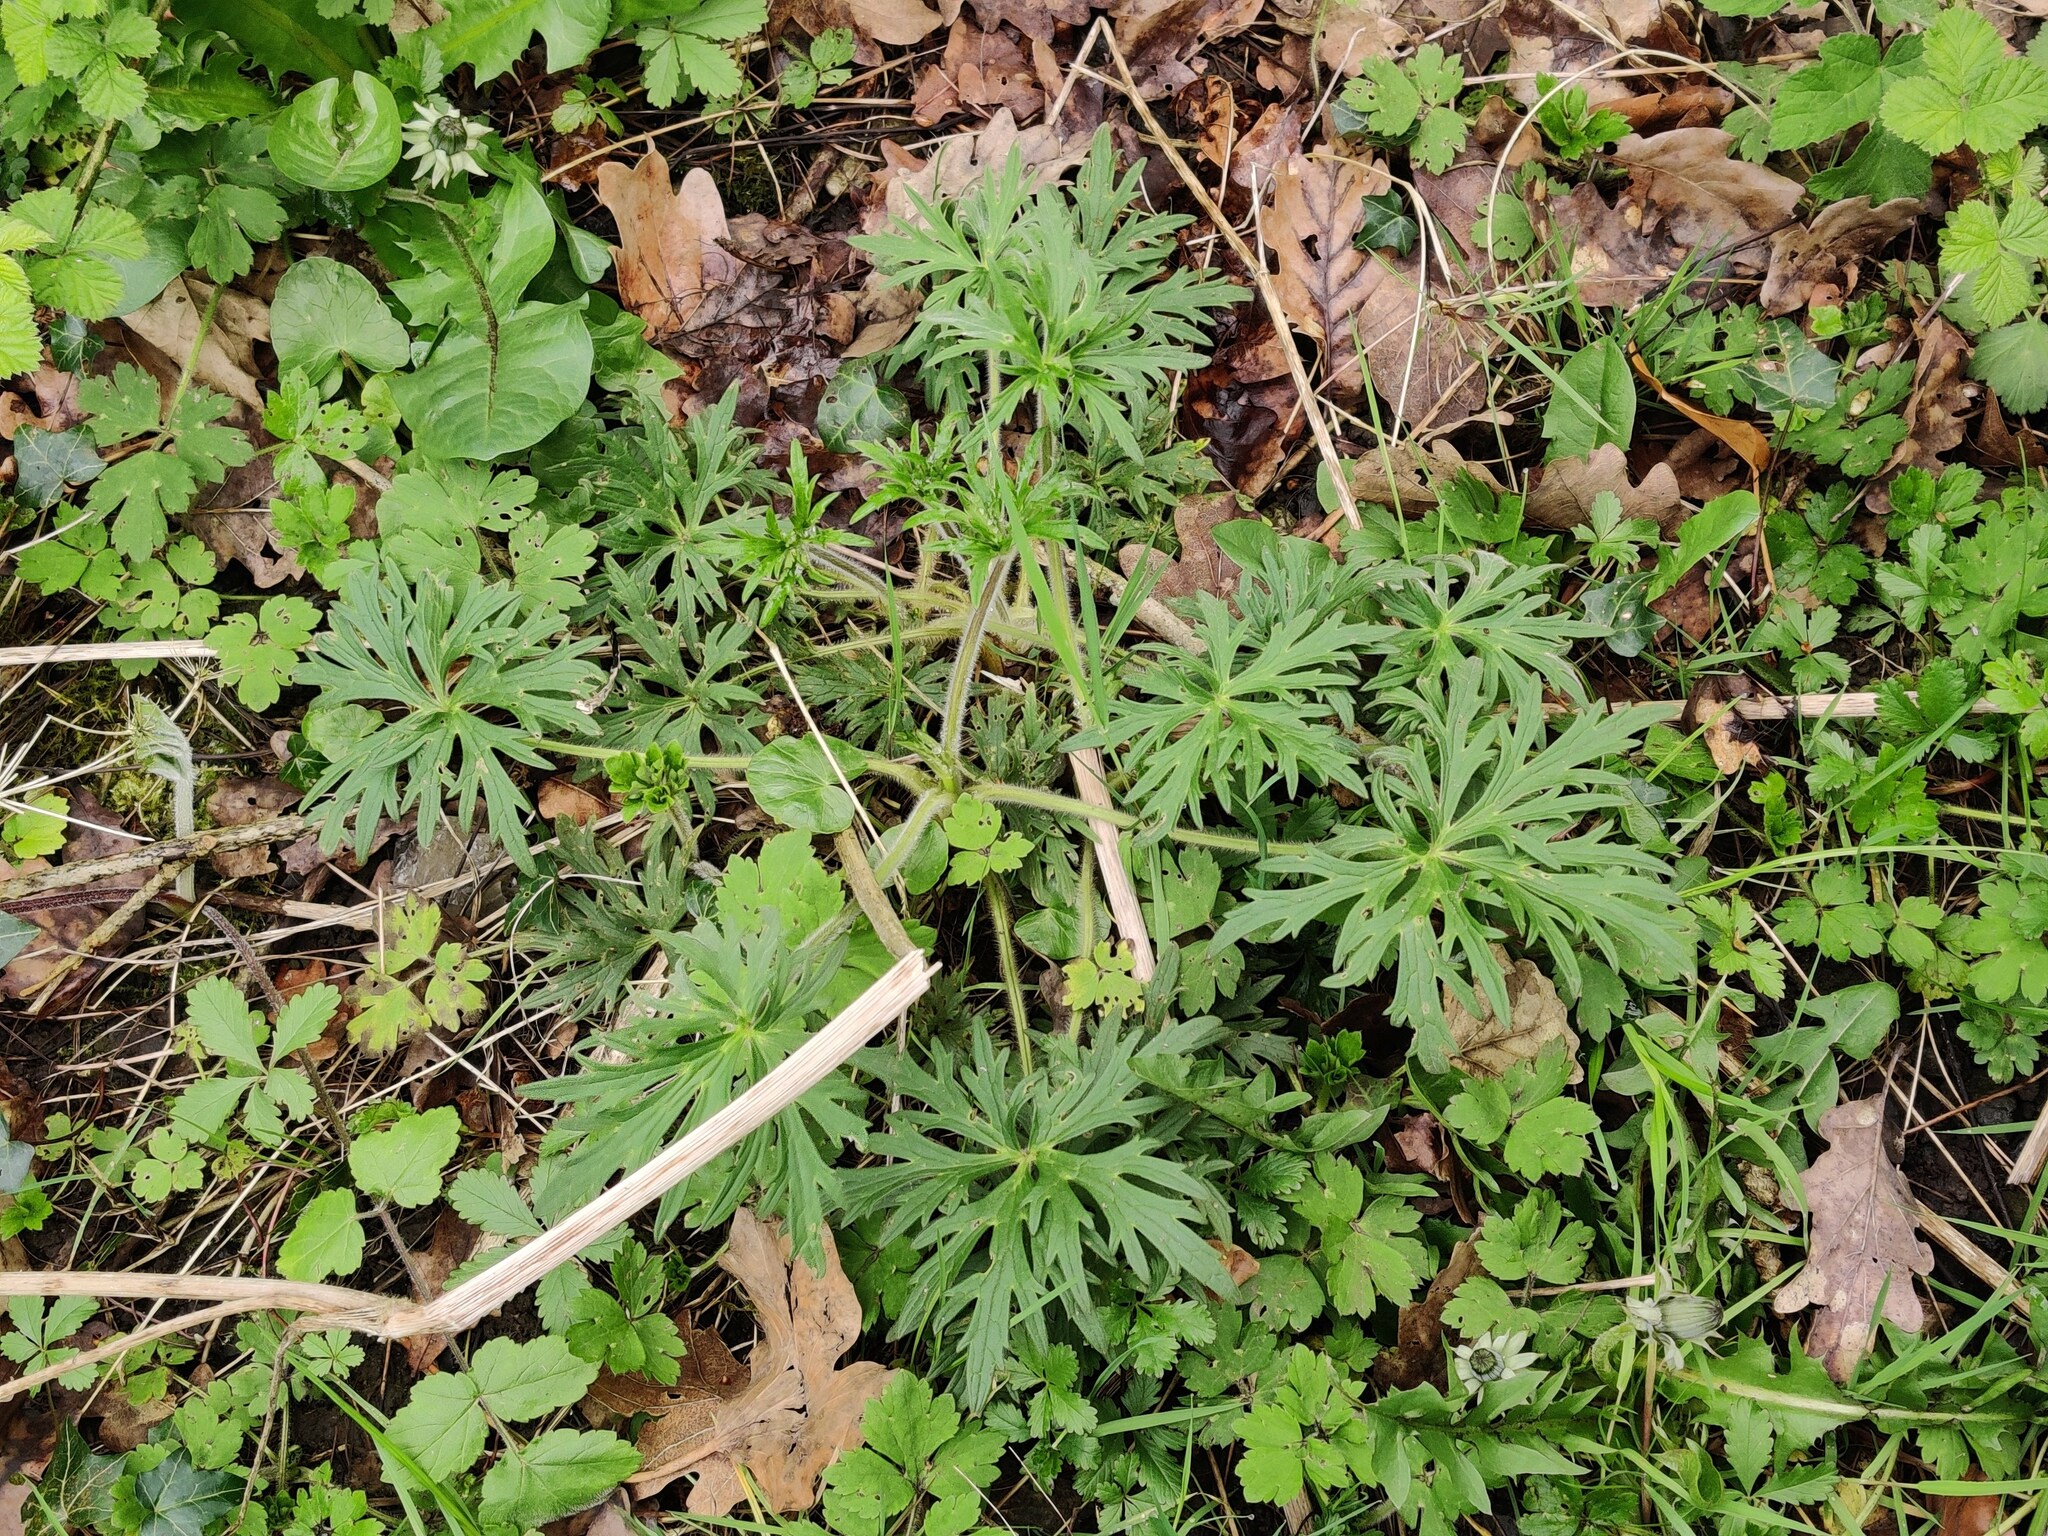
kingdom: Plantae
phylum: Tracheophyta
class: Magnoliopsida
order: Ranunculales
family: Ranunculaceae
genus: Ranunculus
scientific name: Ranunculus acris
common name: Meadow buttercup
